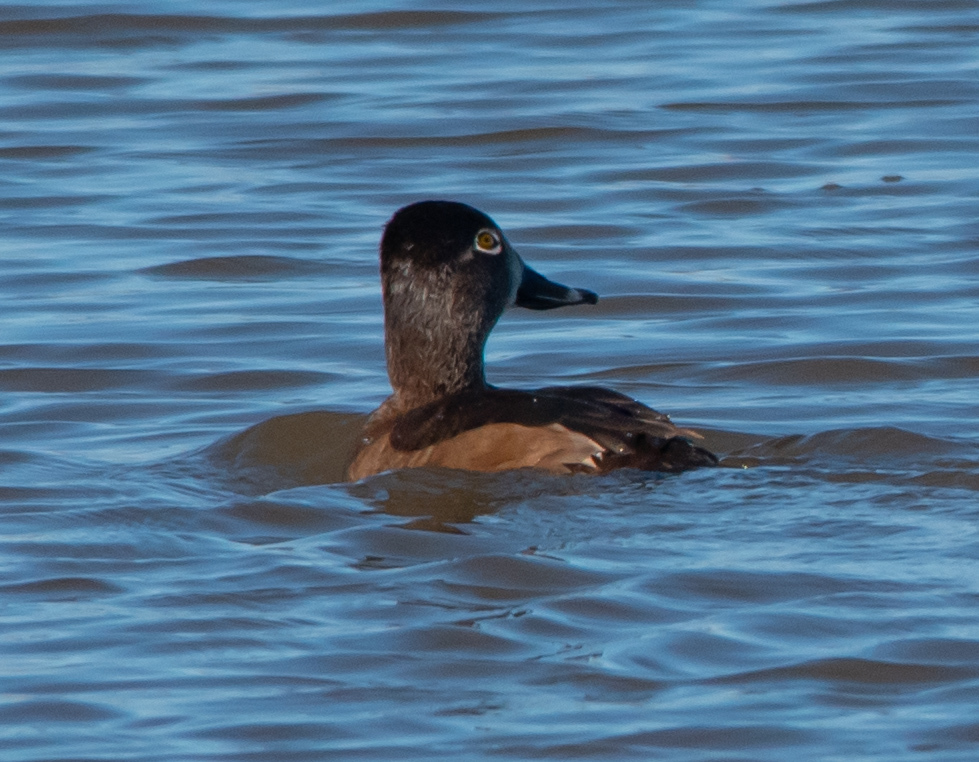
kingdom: Animalia
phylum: Chordata
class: Aves
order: Anseriformes
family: Anatidae
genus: Aythya
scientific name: Aythya collaris
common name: Ring-necked duck
